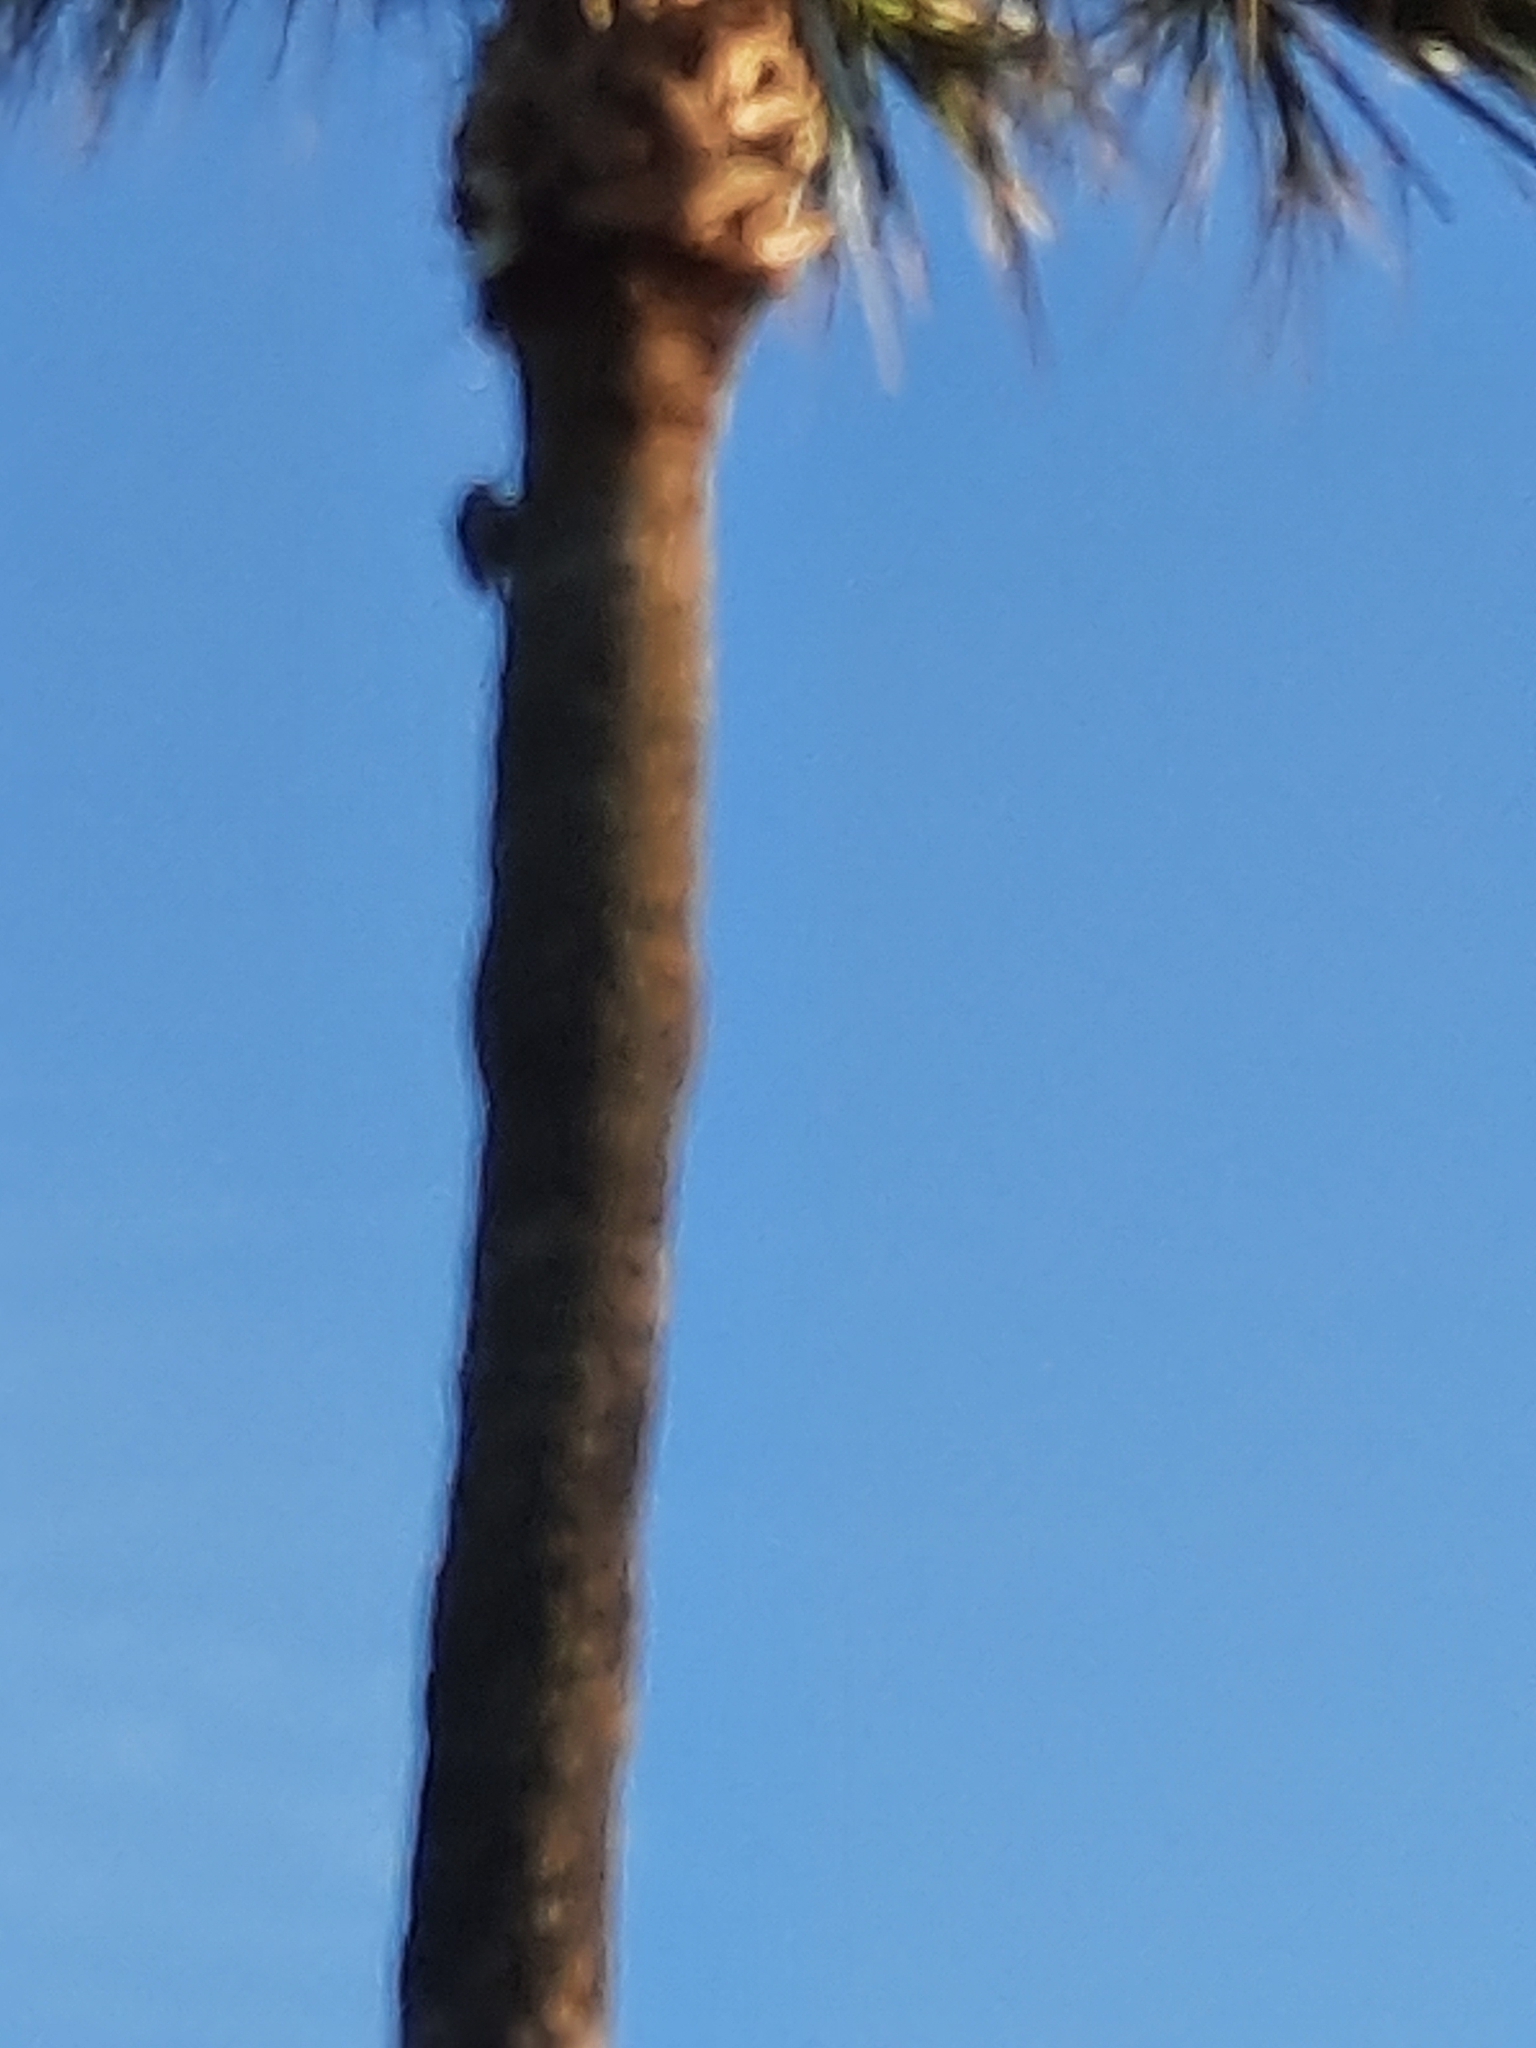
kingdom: Animalia
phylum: Chordata
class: Aves
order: Piciformes
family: Picidae
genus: Melanerpes
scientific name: Melanerpes carolinus
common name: Red-bellied woodpecker
